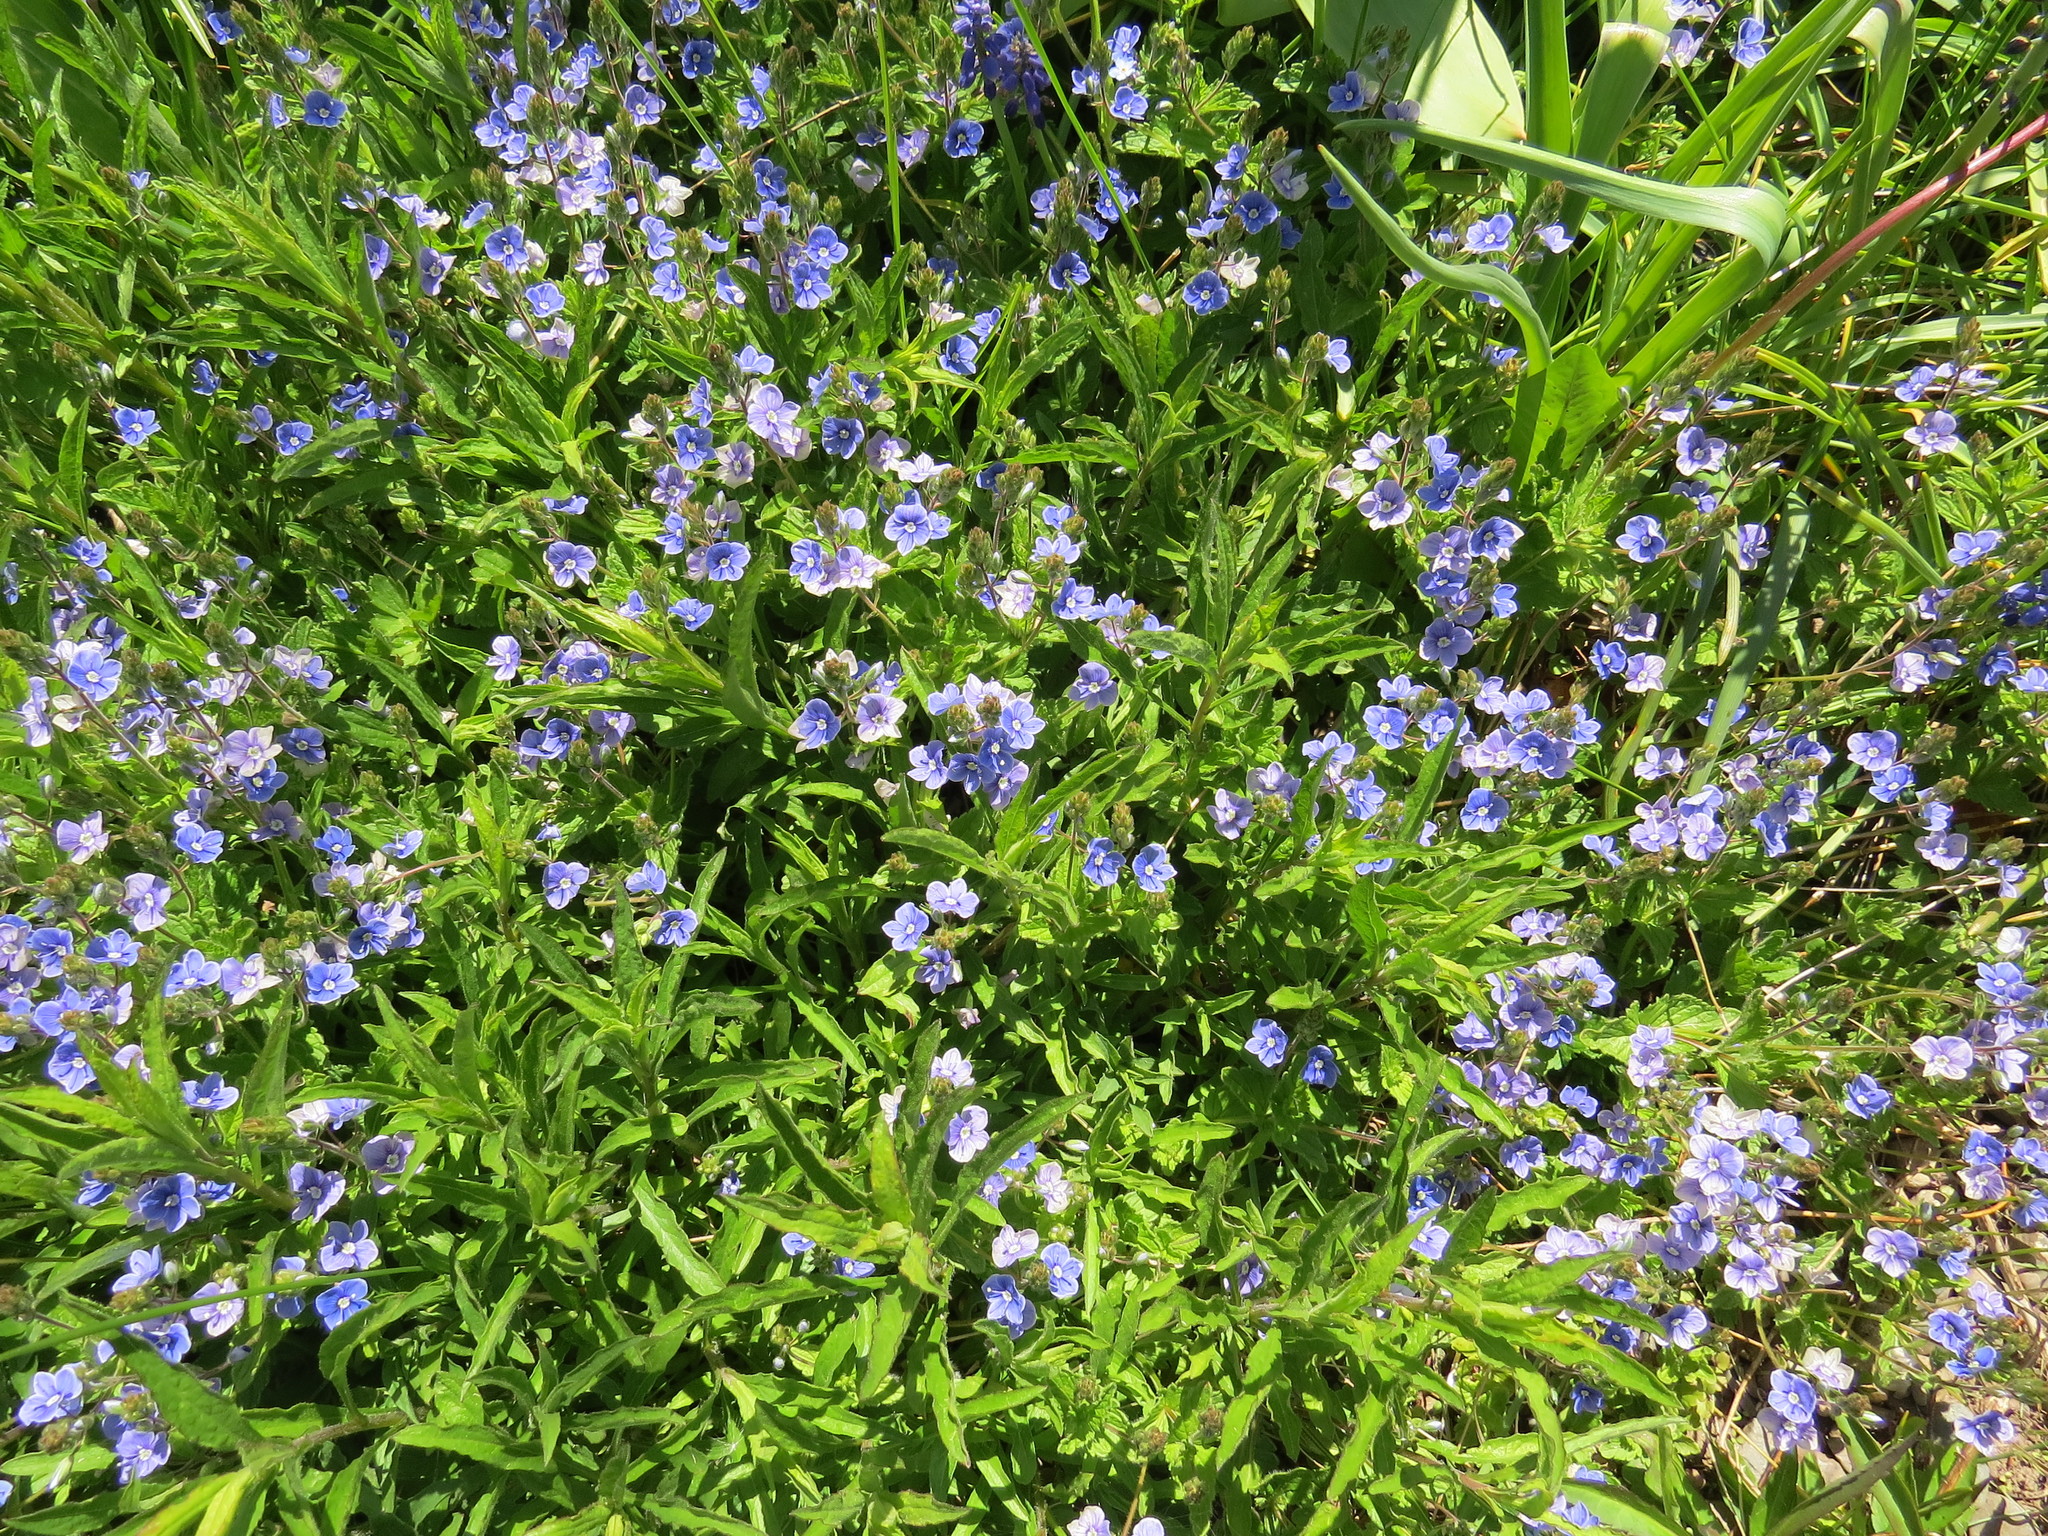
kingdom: Plantae
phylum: Tracheophyta
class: Magnoliopsida
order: Lamiales
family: Plantaginaceae
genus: Veronica
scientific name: Veronica chamaedrys
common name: Germander speedwell
